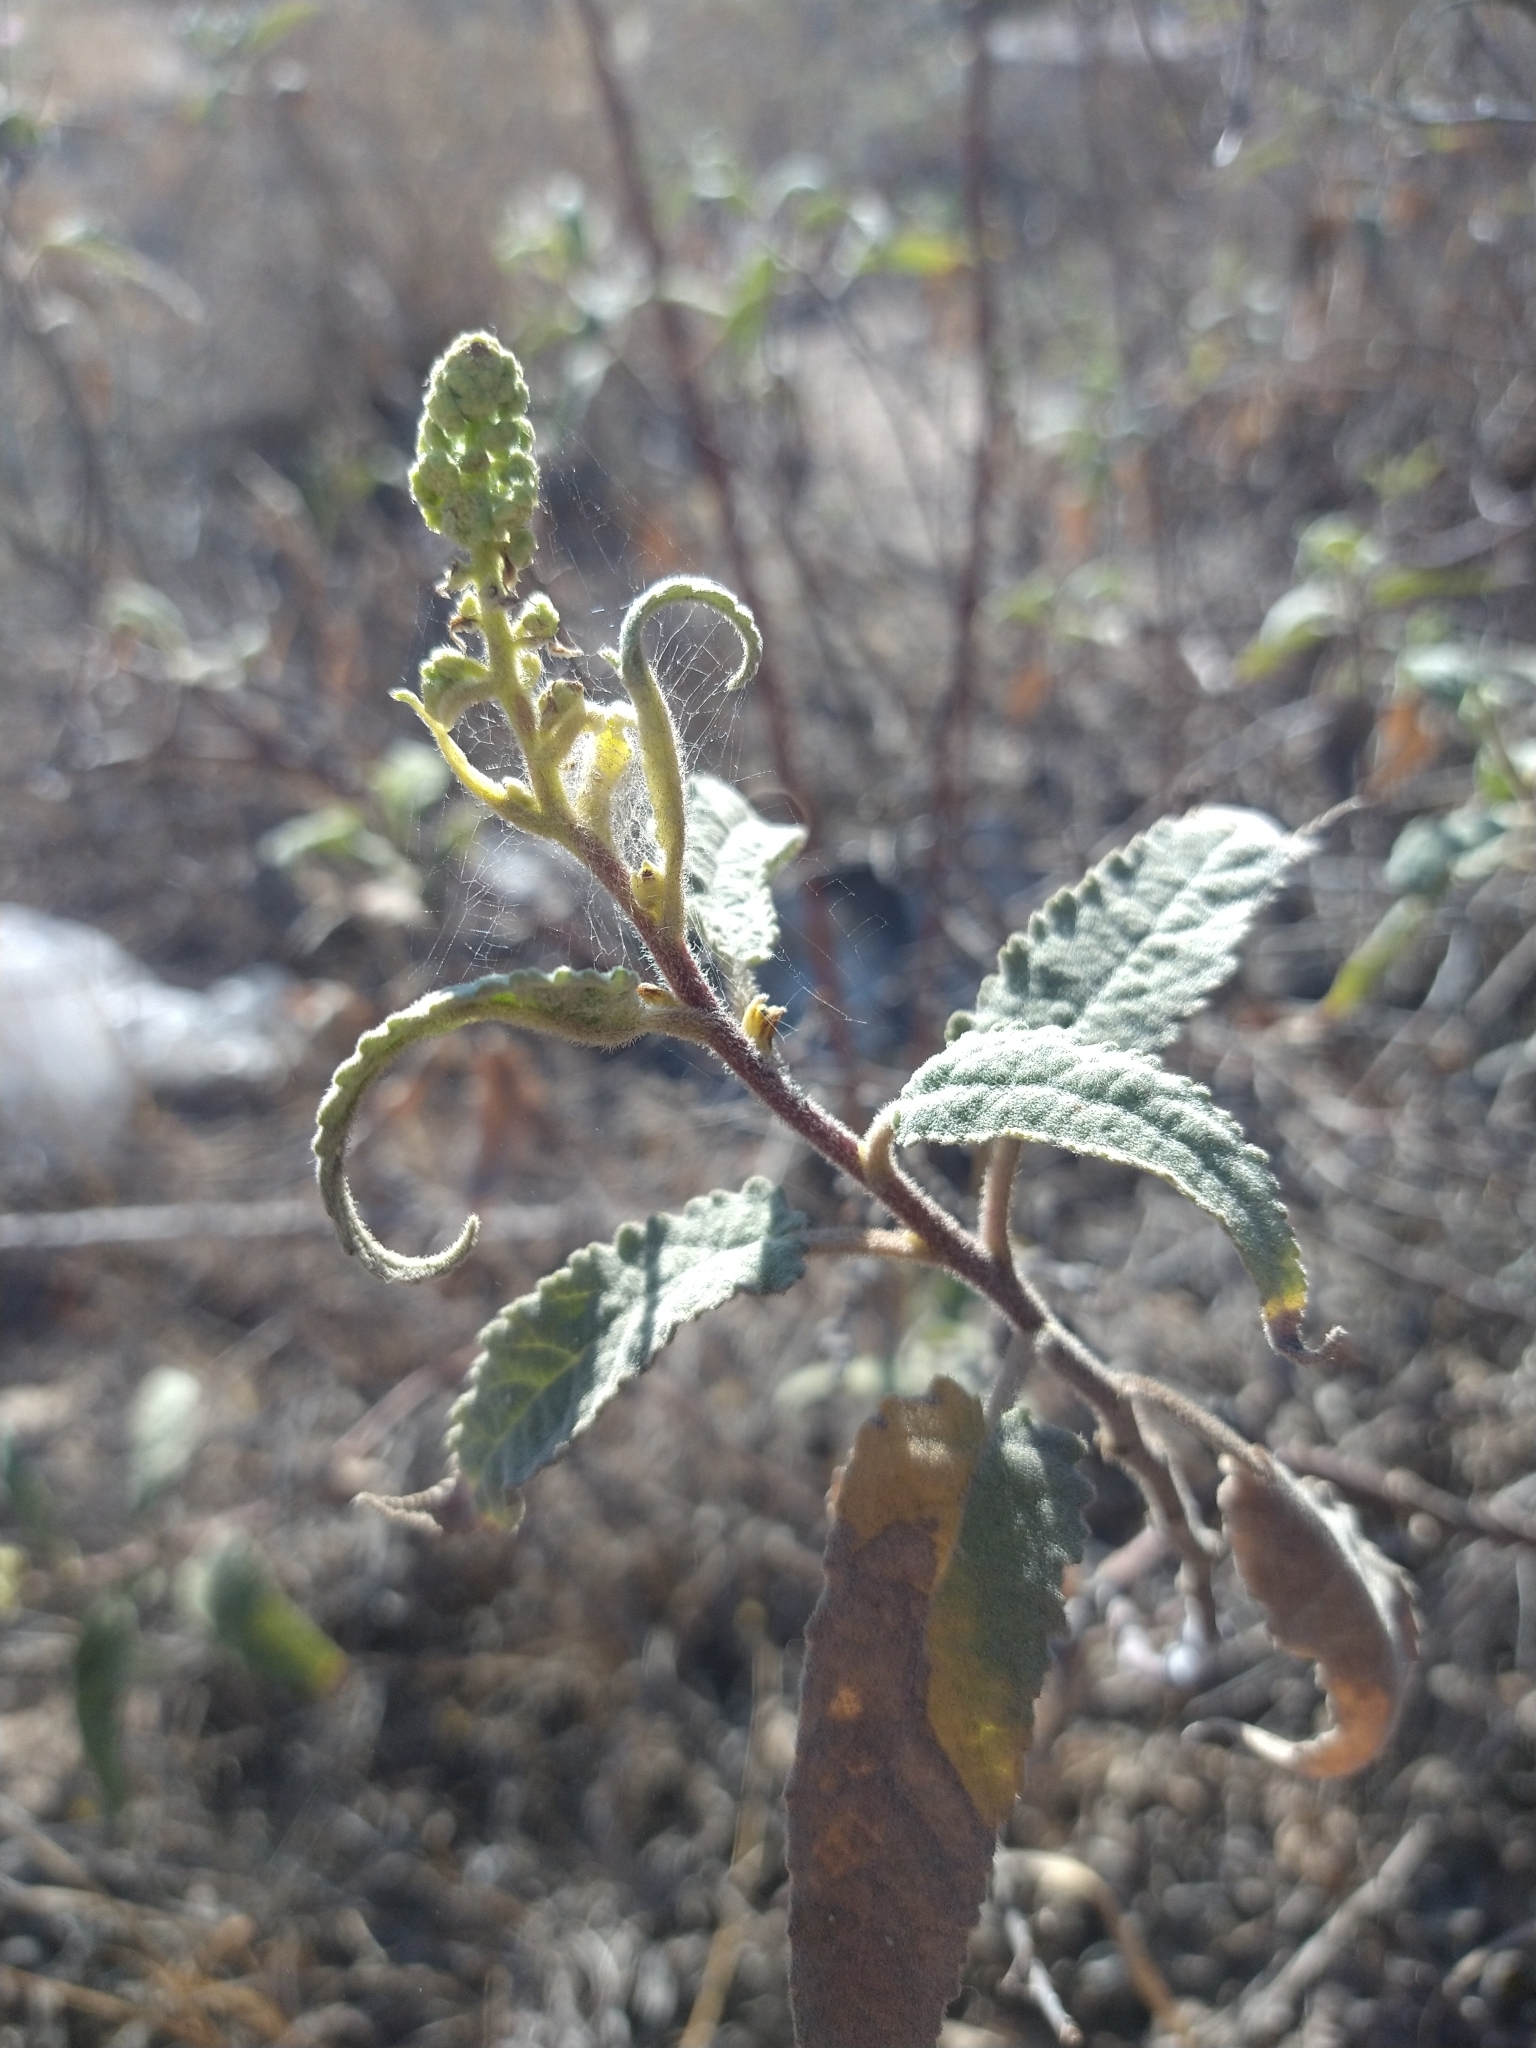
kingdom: Plantae
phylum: Tracheophyta
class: Magnoliopsida
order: Asterales
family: Asteraceae
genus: Ambrosia
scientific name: Ambrosia ambrosioides
